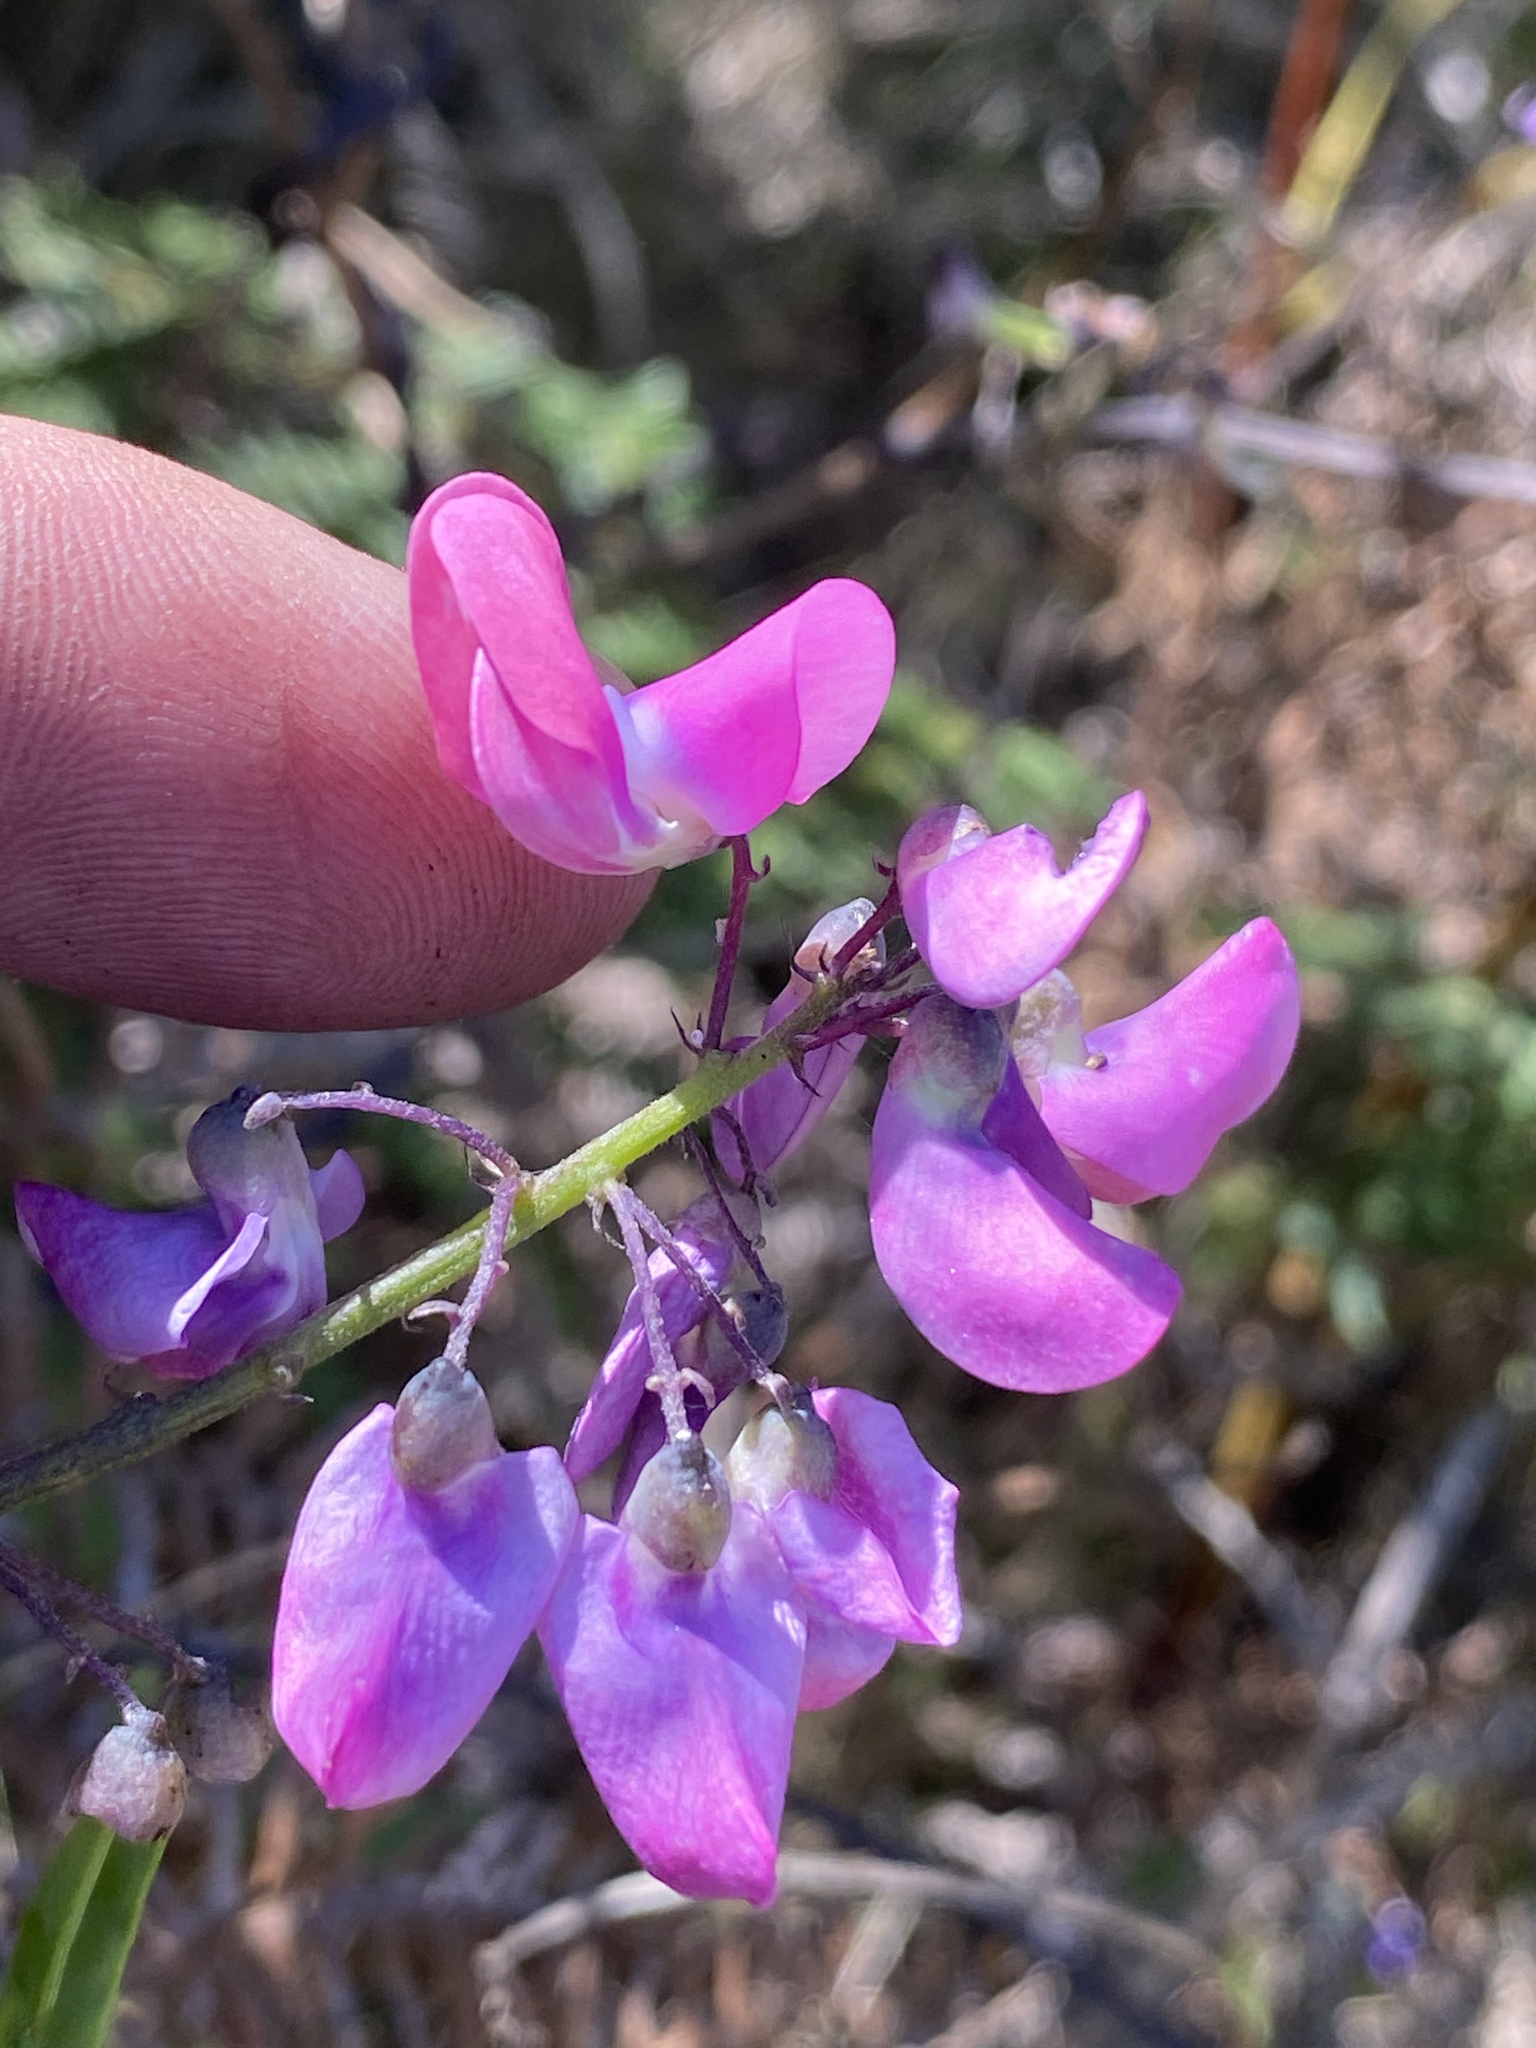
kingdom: Plantae
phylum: Tracheophyta
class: Magnoliopsida
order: Fabales
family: Fabaceae
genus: Dipogon
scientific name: Dipogon lignosus
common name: Okie bean
